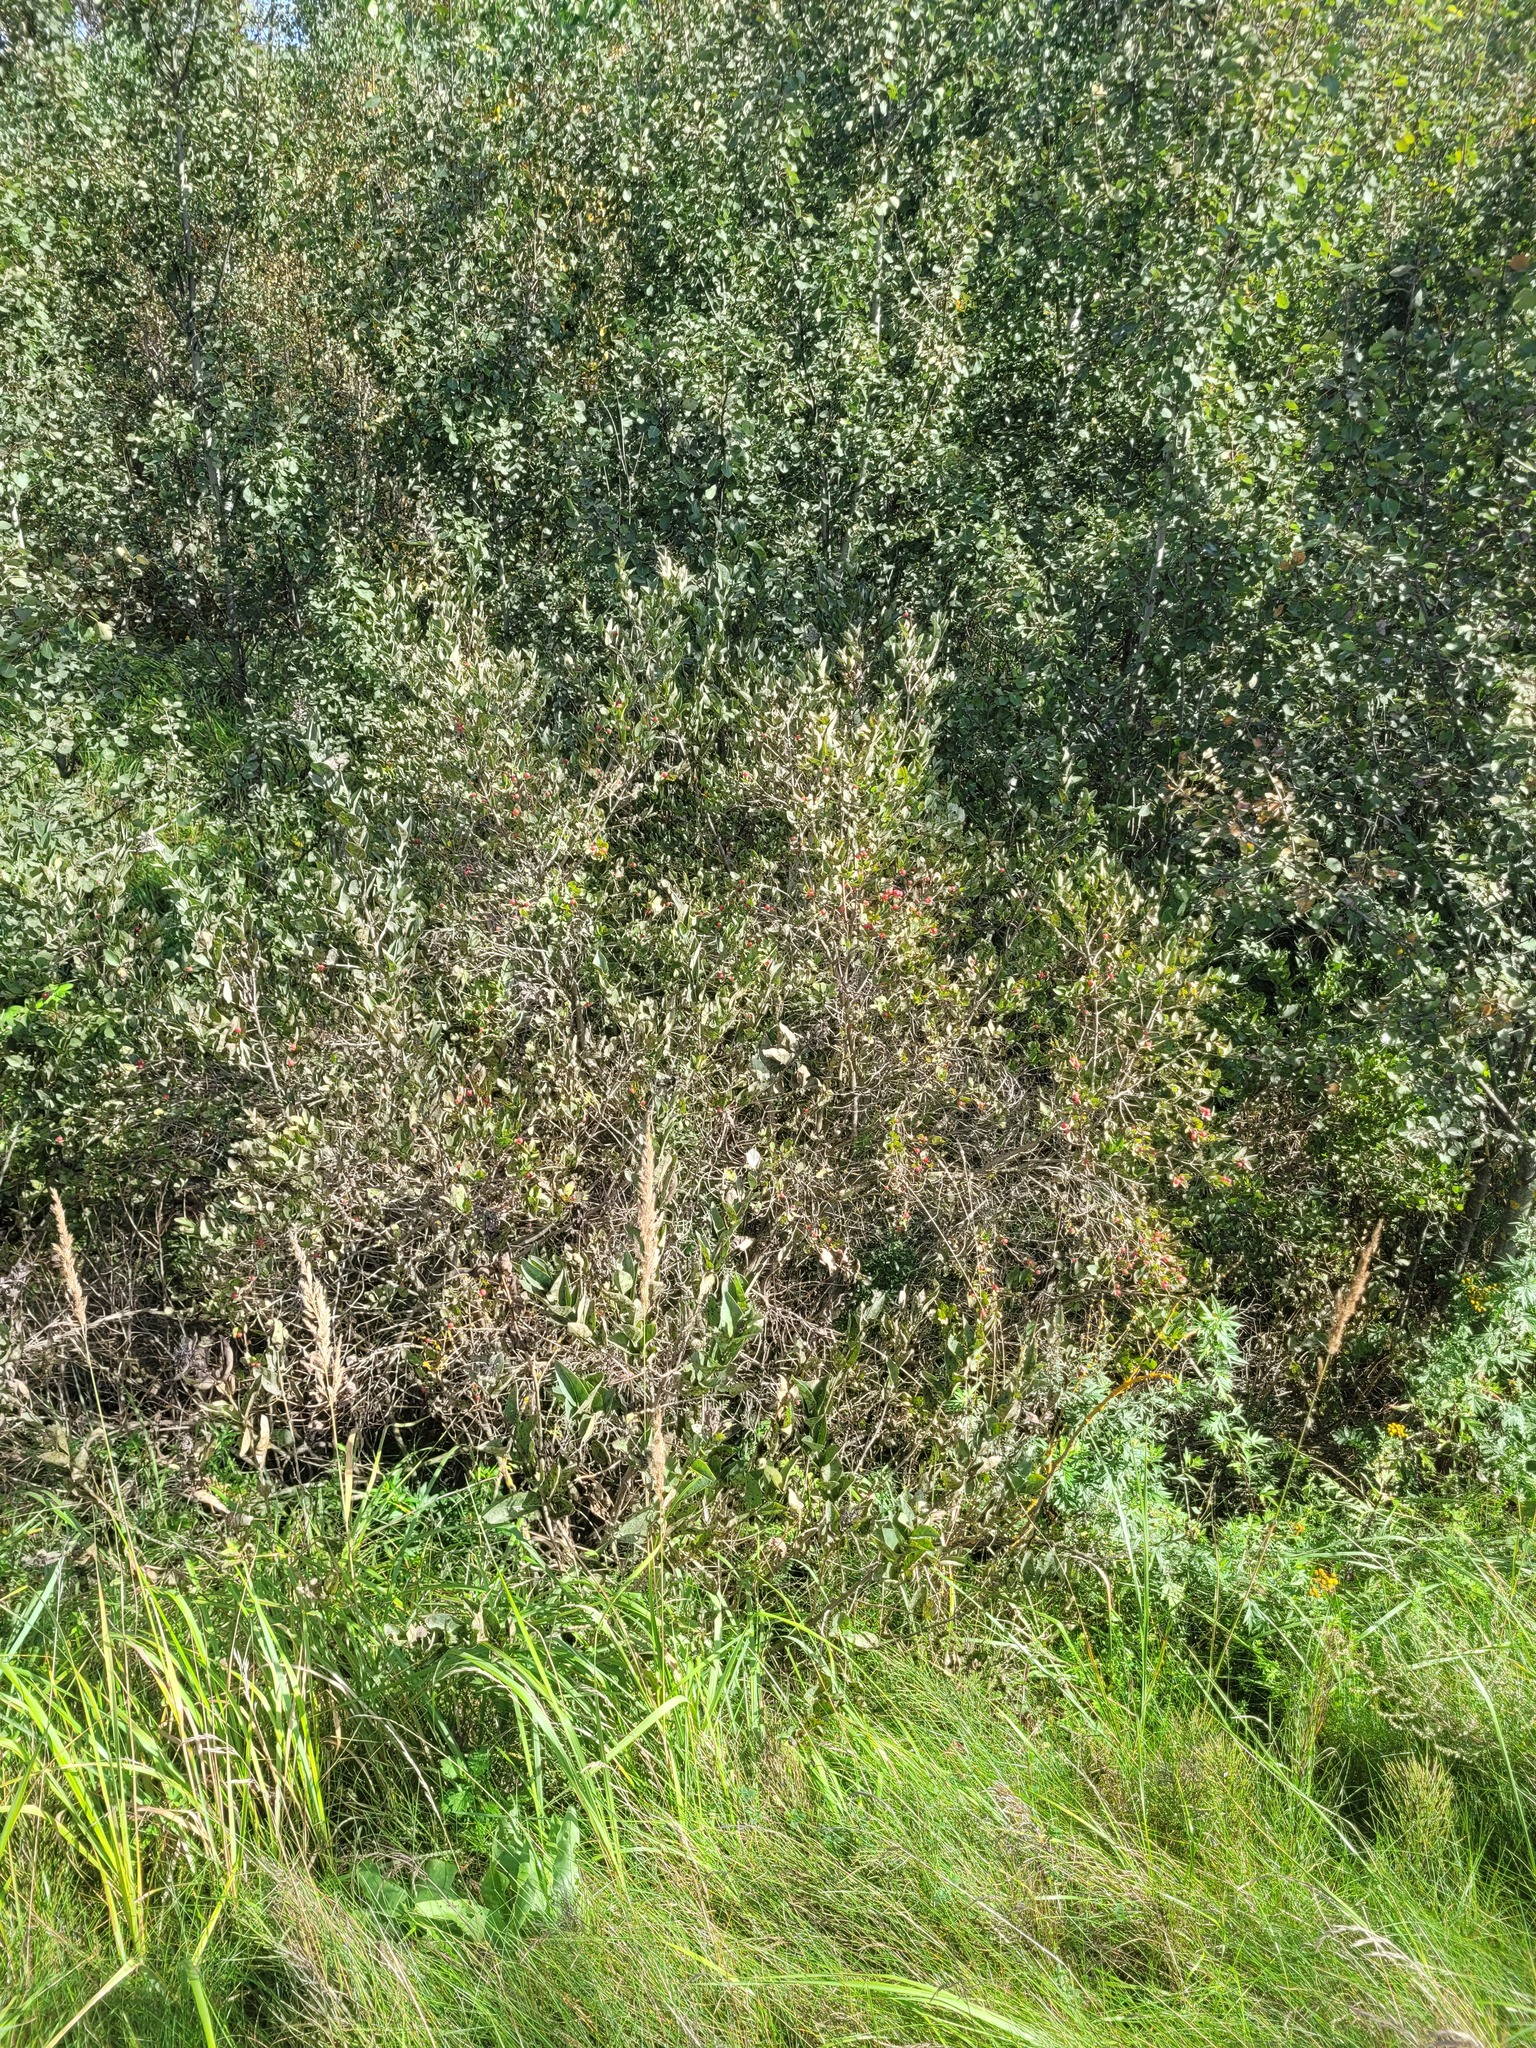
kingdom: Plantae
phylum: Tracheophyta
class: Magnoliopsida
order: Dipsacales
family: Caprifoliaceae
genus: Lonicera
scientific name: Lonicera tatarica
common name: Tatarian honeysuckle
